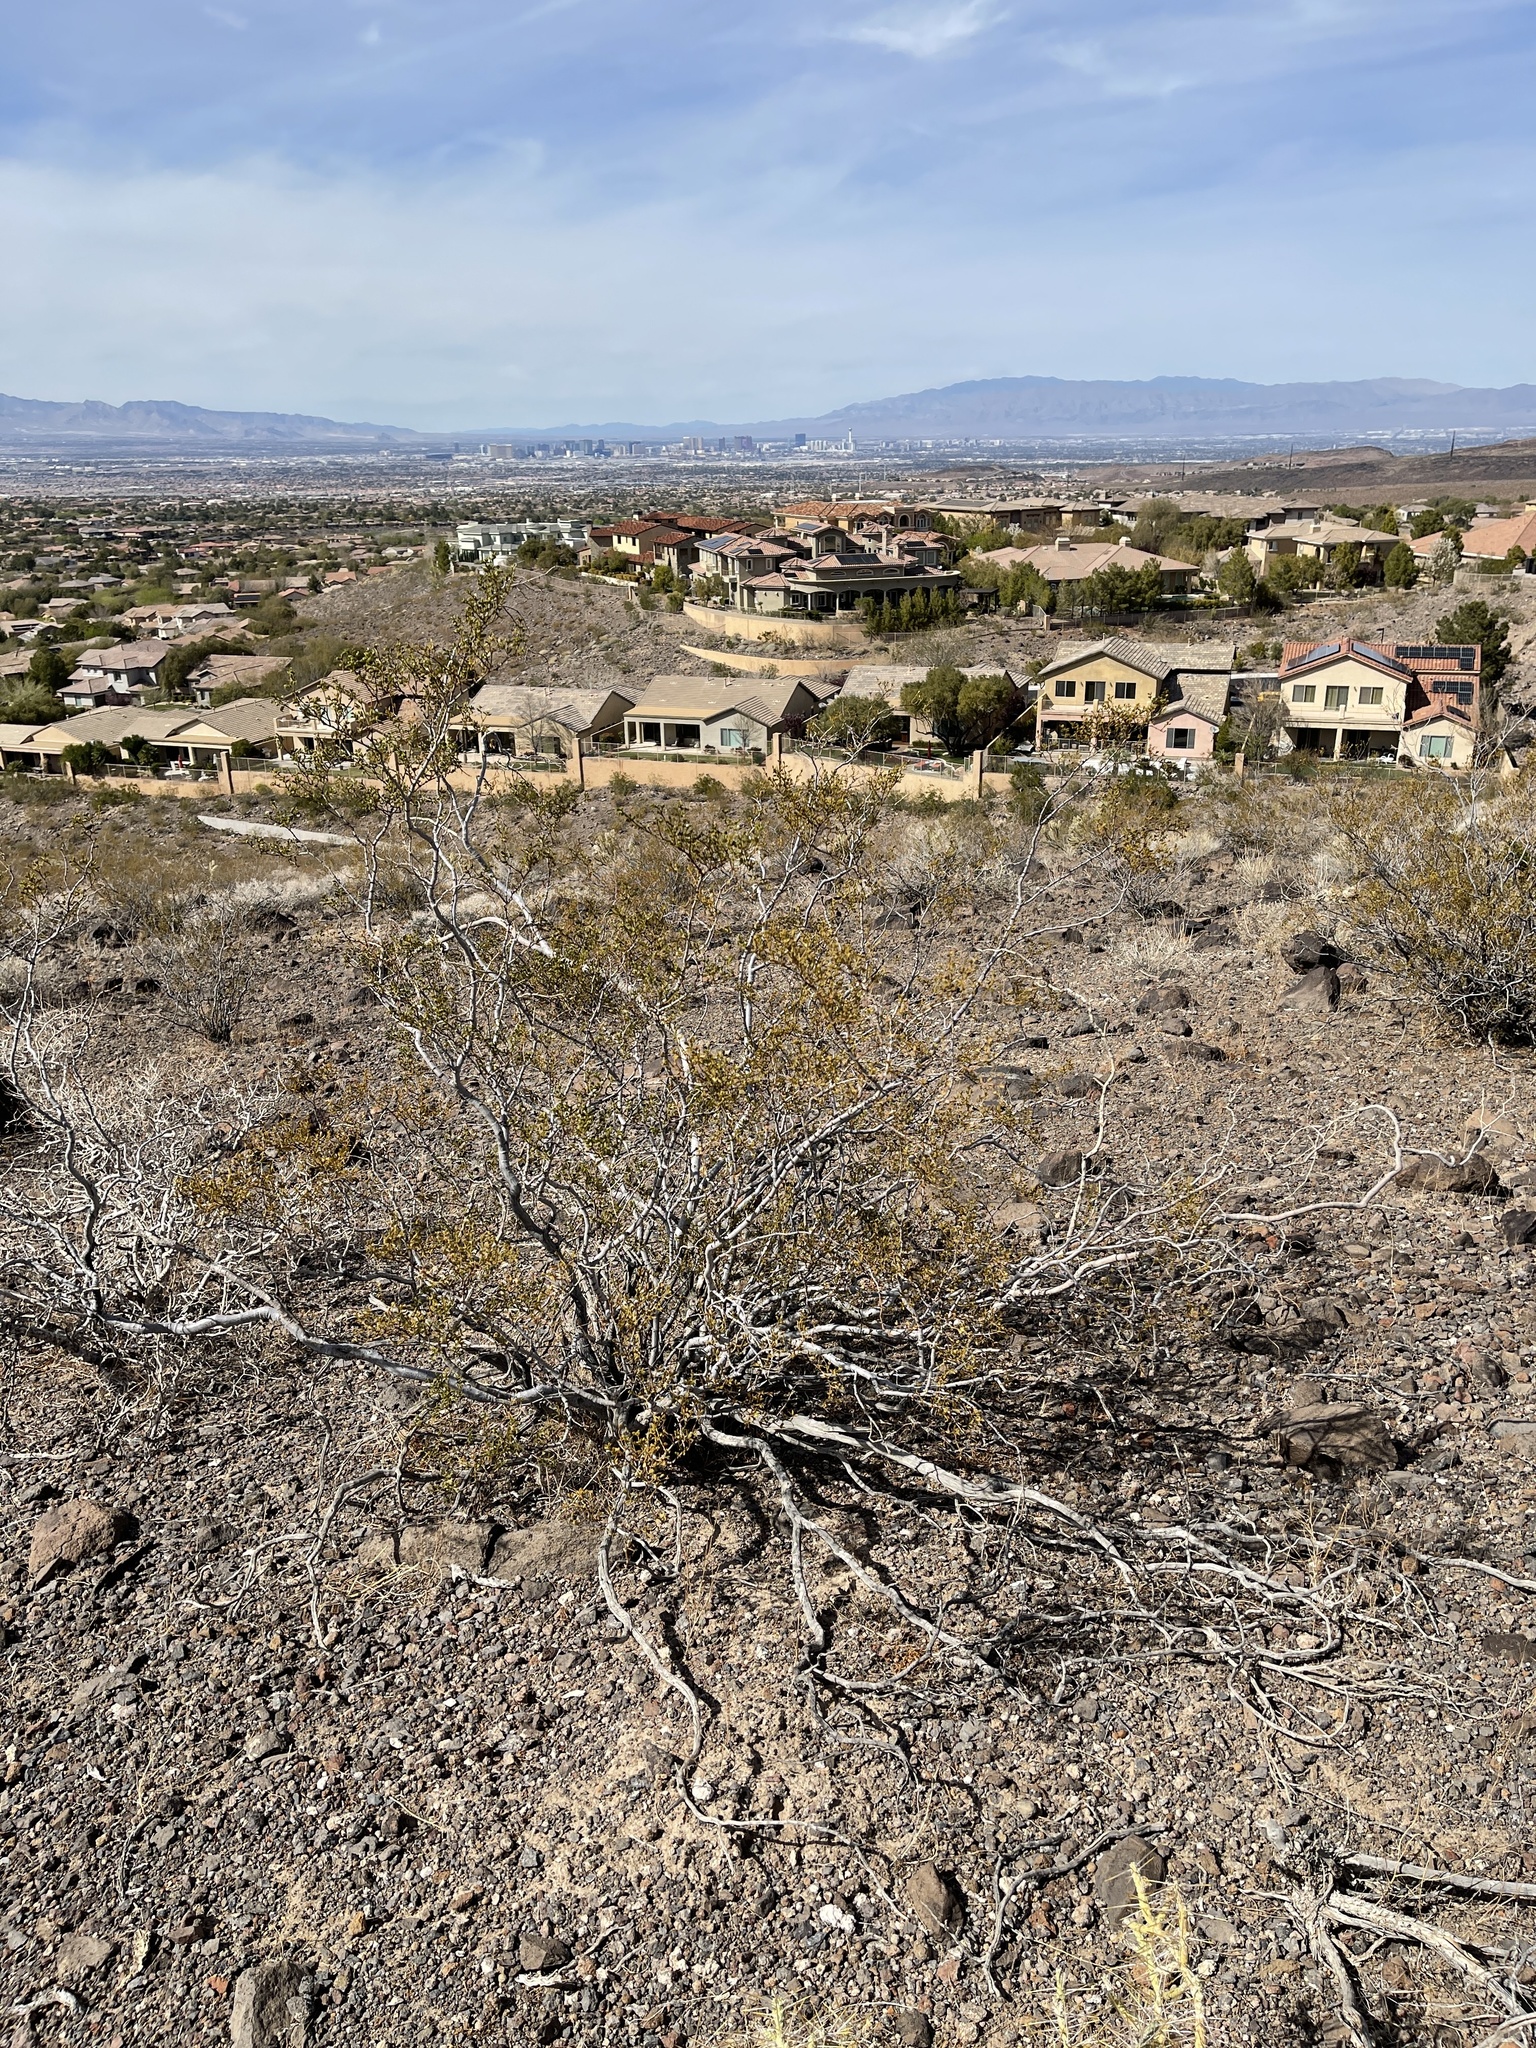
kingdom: Plantae
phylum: Tracheophyta
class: Magnoliopsida
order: Zygophyllales
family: Zygophyllaceae
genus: Larrea
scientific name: Larrea tridentata
